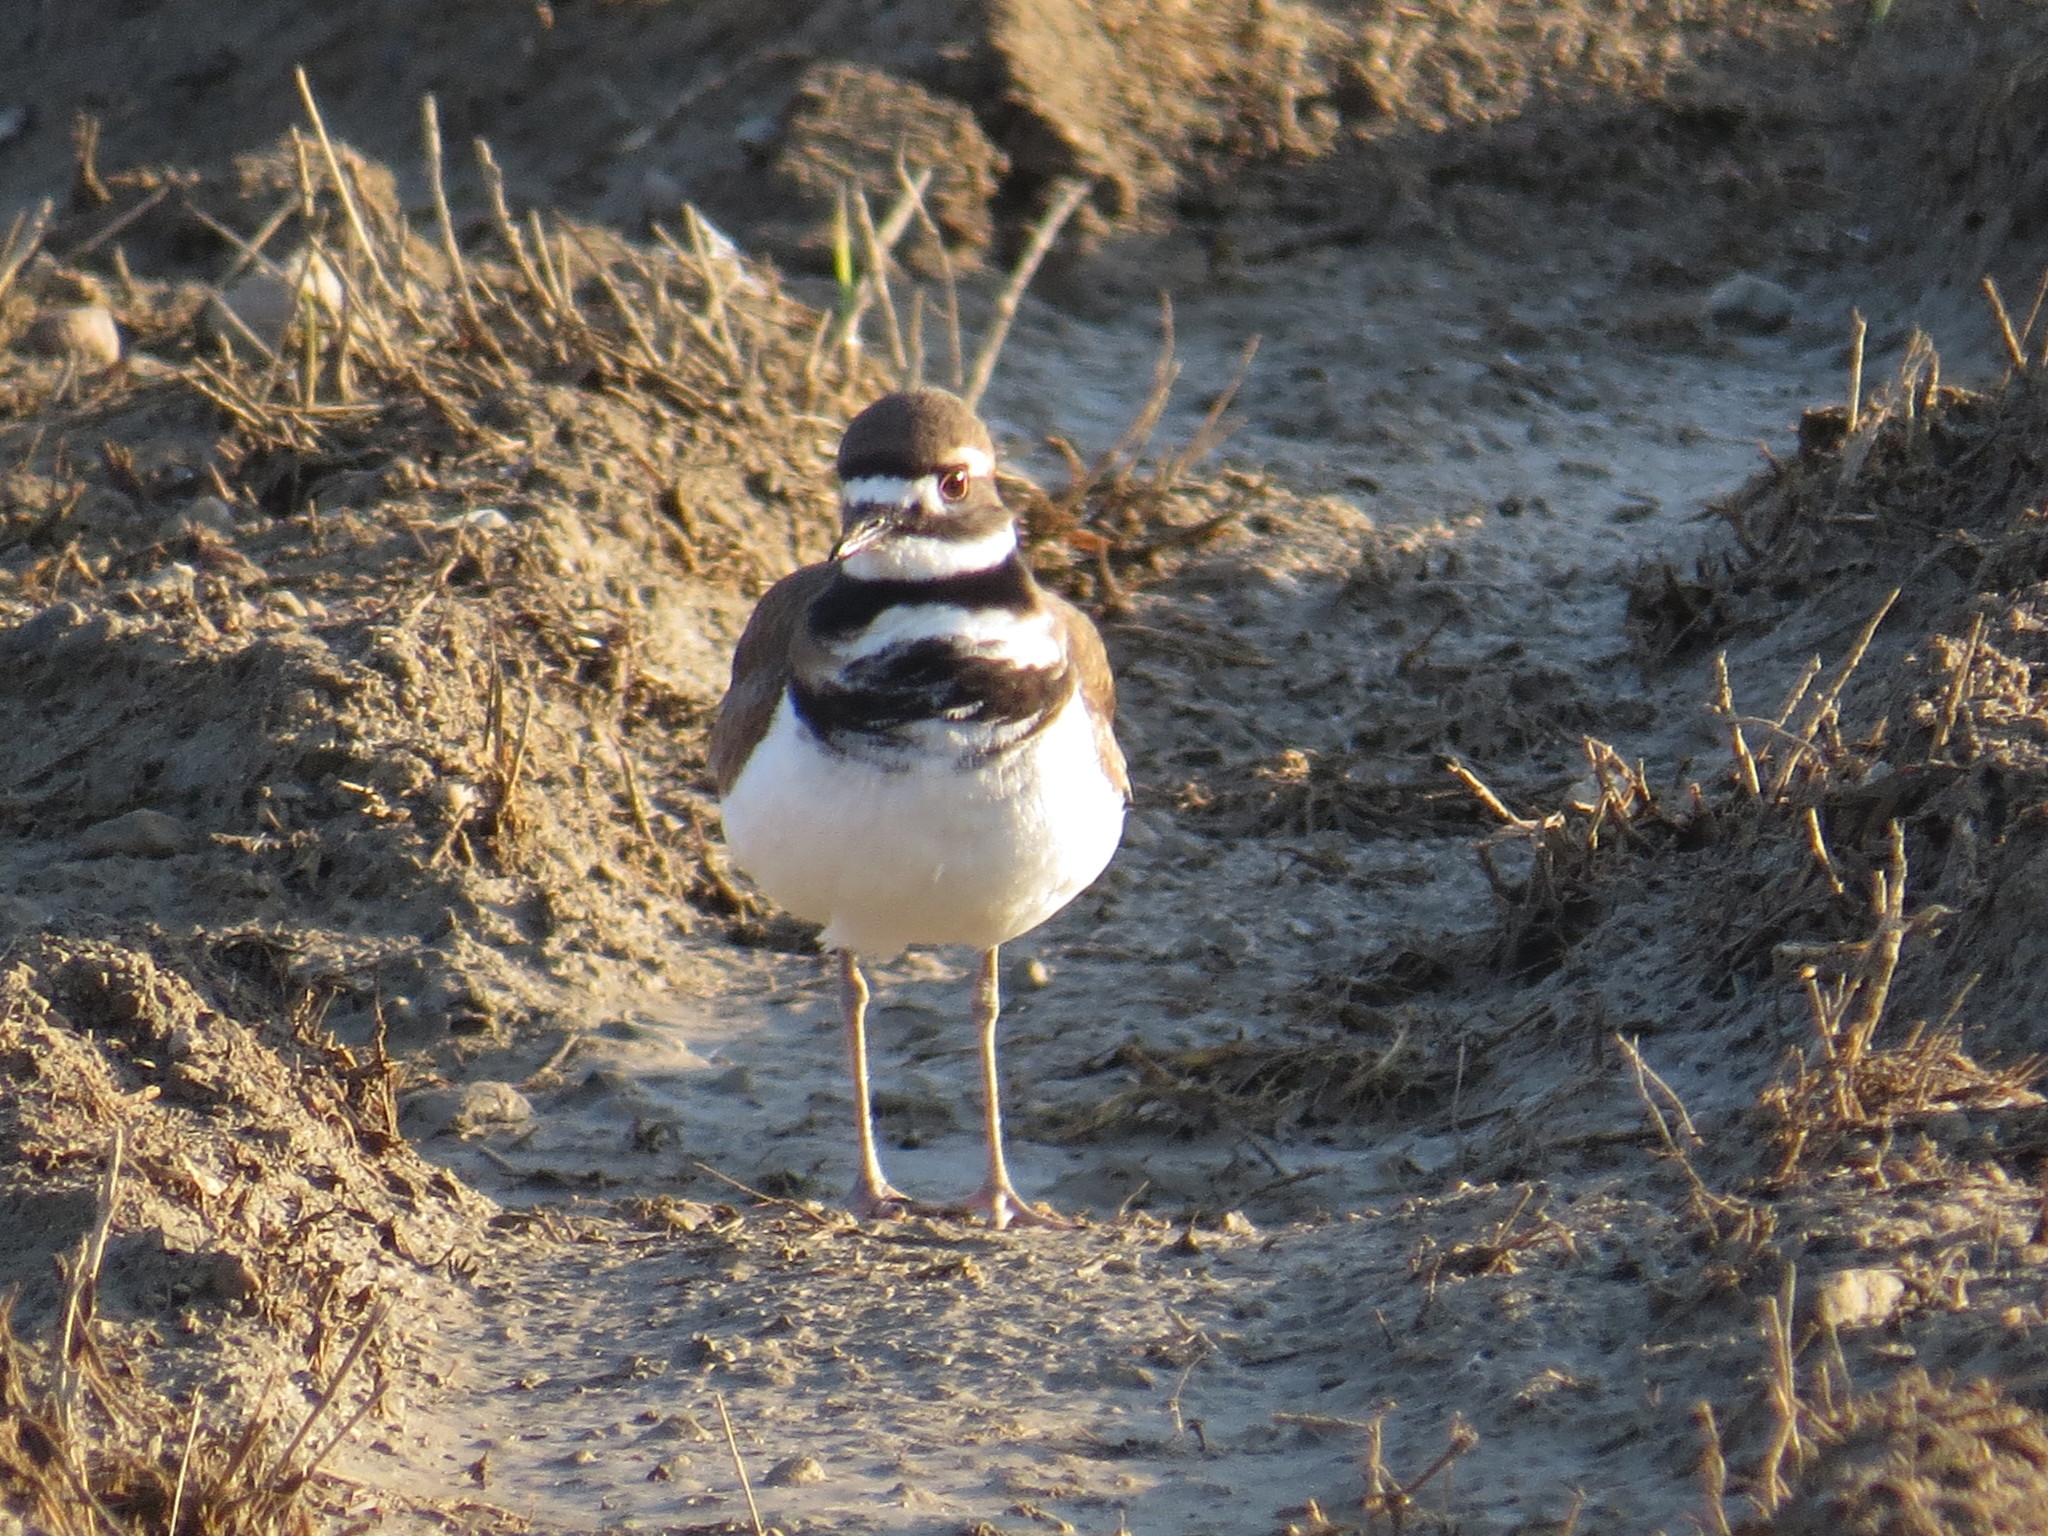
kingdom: Animalia
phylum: Chordata
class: Aves
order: Charadriiformes
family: Charadriidae
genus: Charadrius
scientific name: Charadrius vociferus
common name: Killdeer
